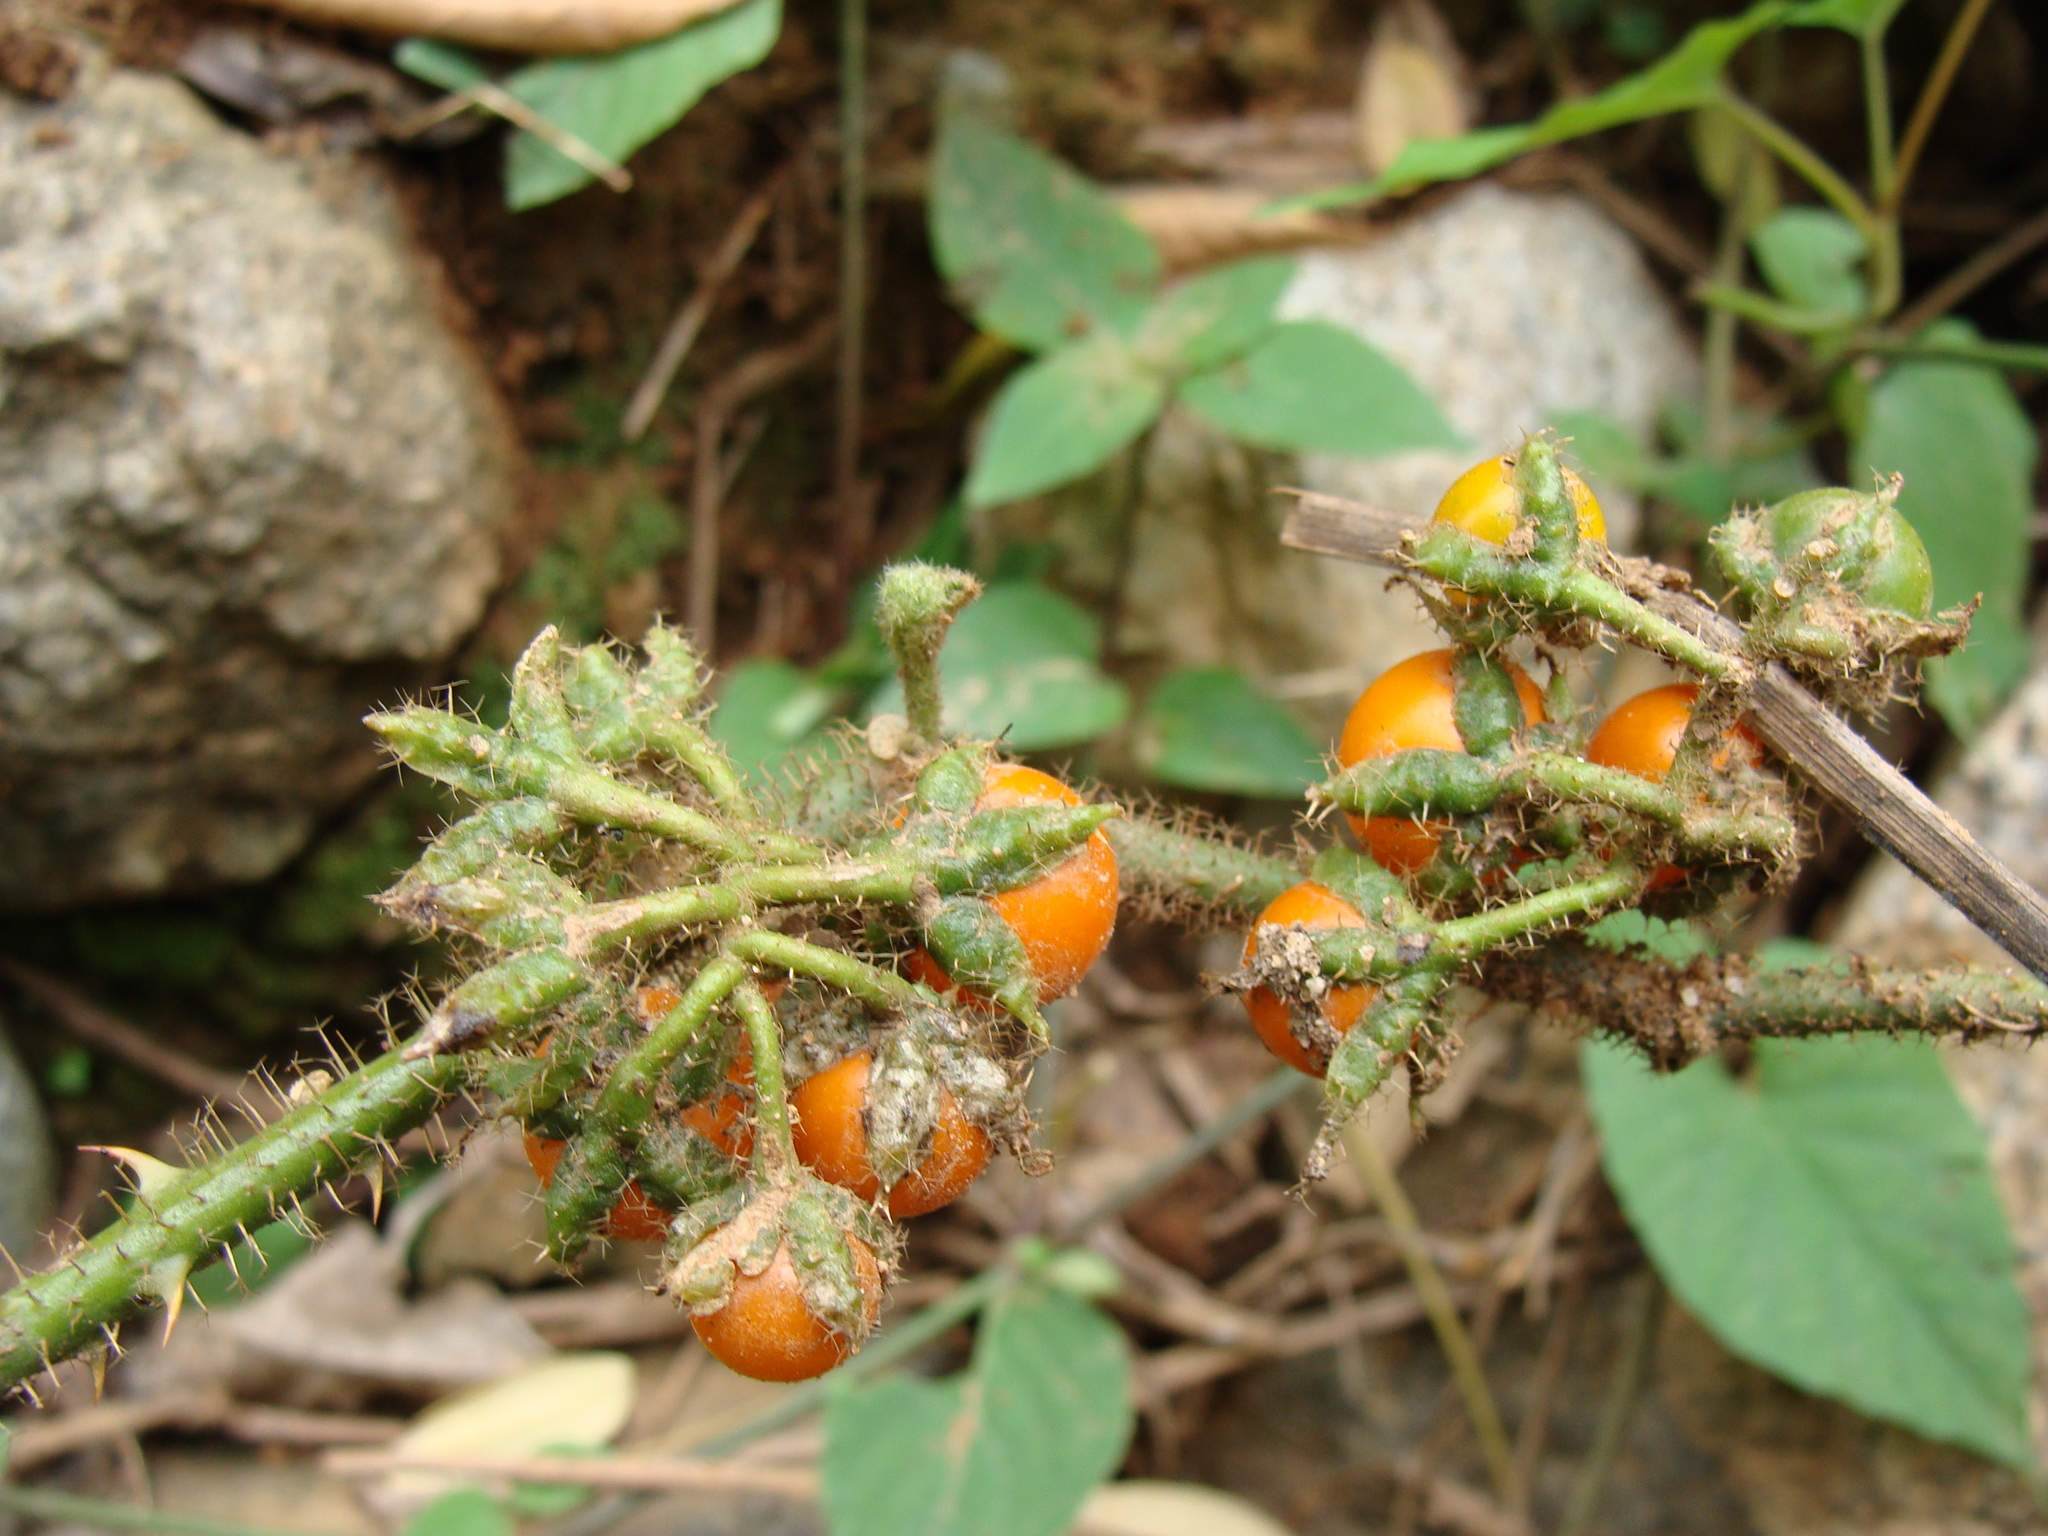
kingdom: Plantae
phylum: Tracheophyta
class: Magnoliopsida
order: Solanales
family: Solanaceae
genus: Solanum
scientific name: Solanum jamaicense
